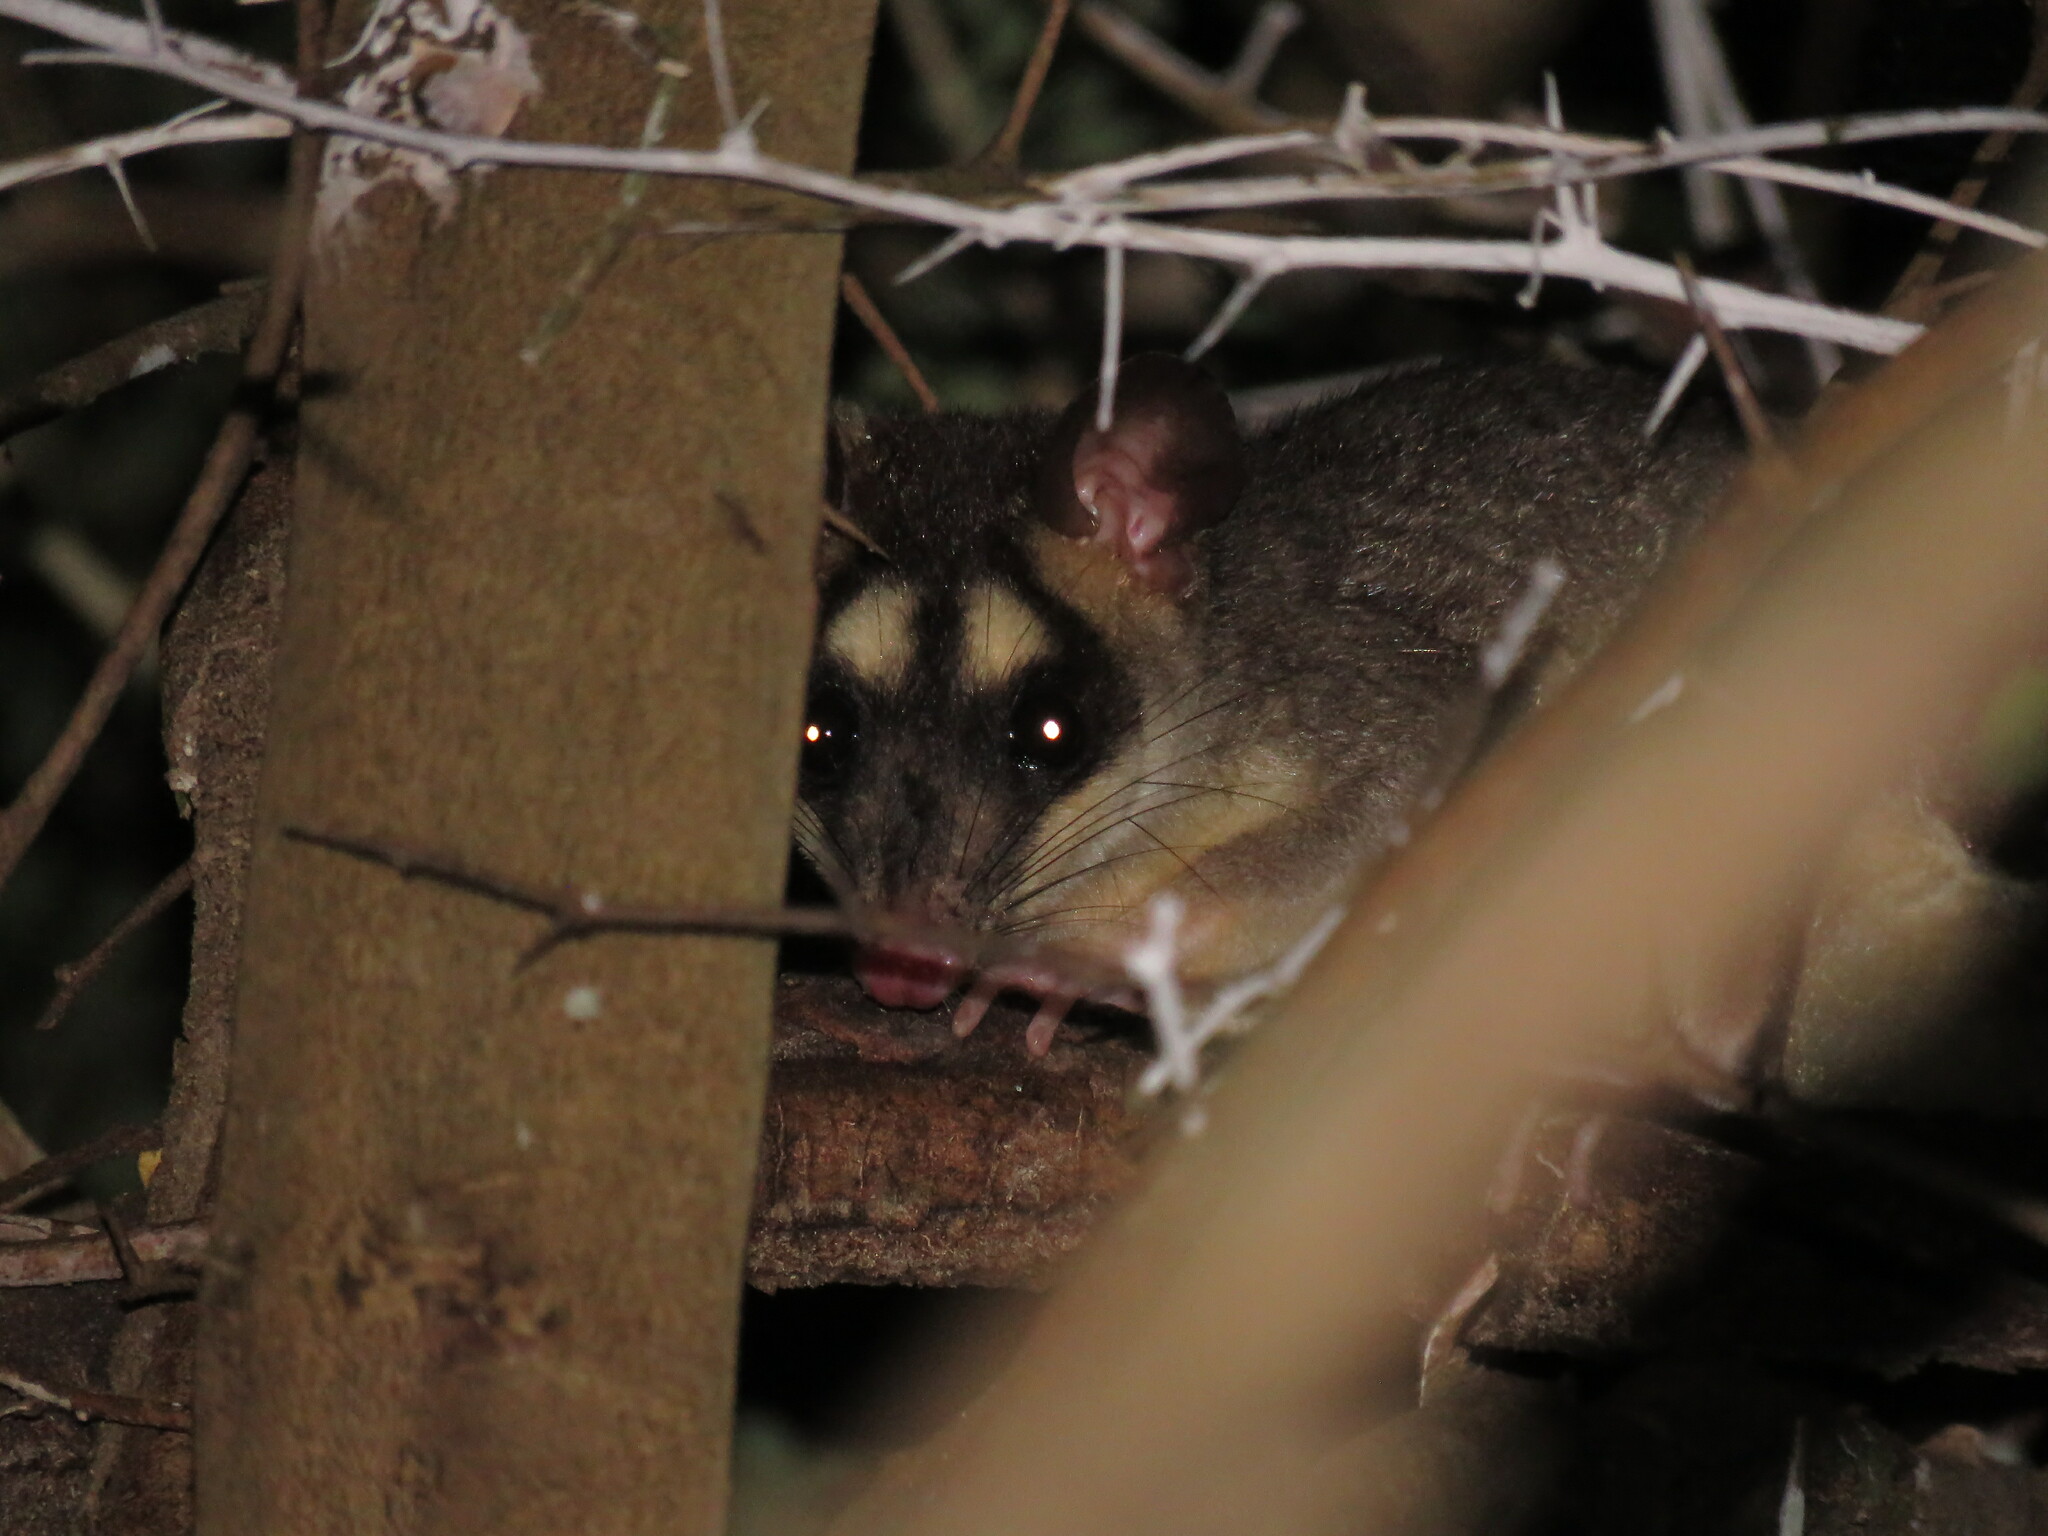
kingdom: Animalia
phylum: Chordata
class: Mammalia
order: Didelphimorphia
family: Didelphidae
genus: Philander
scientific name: Philander
